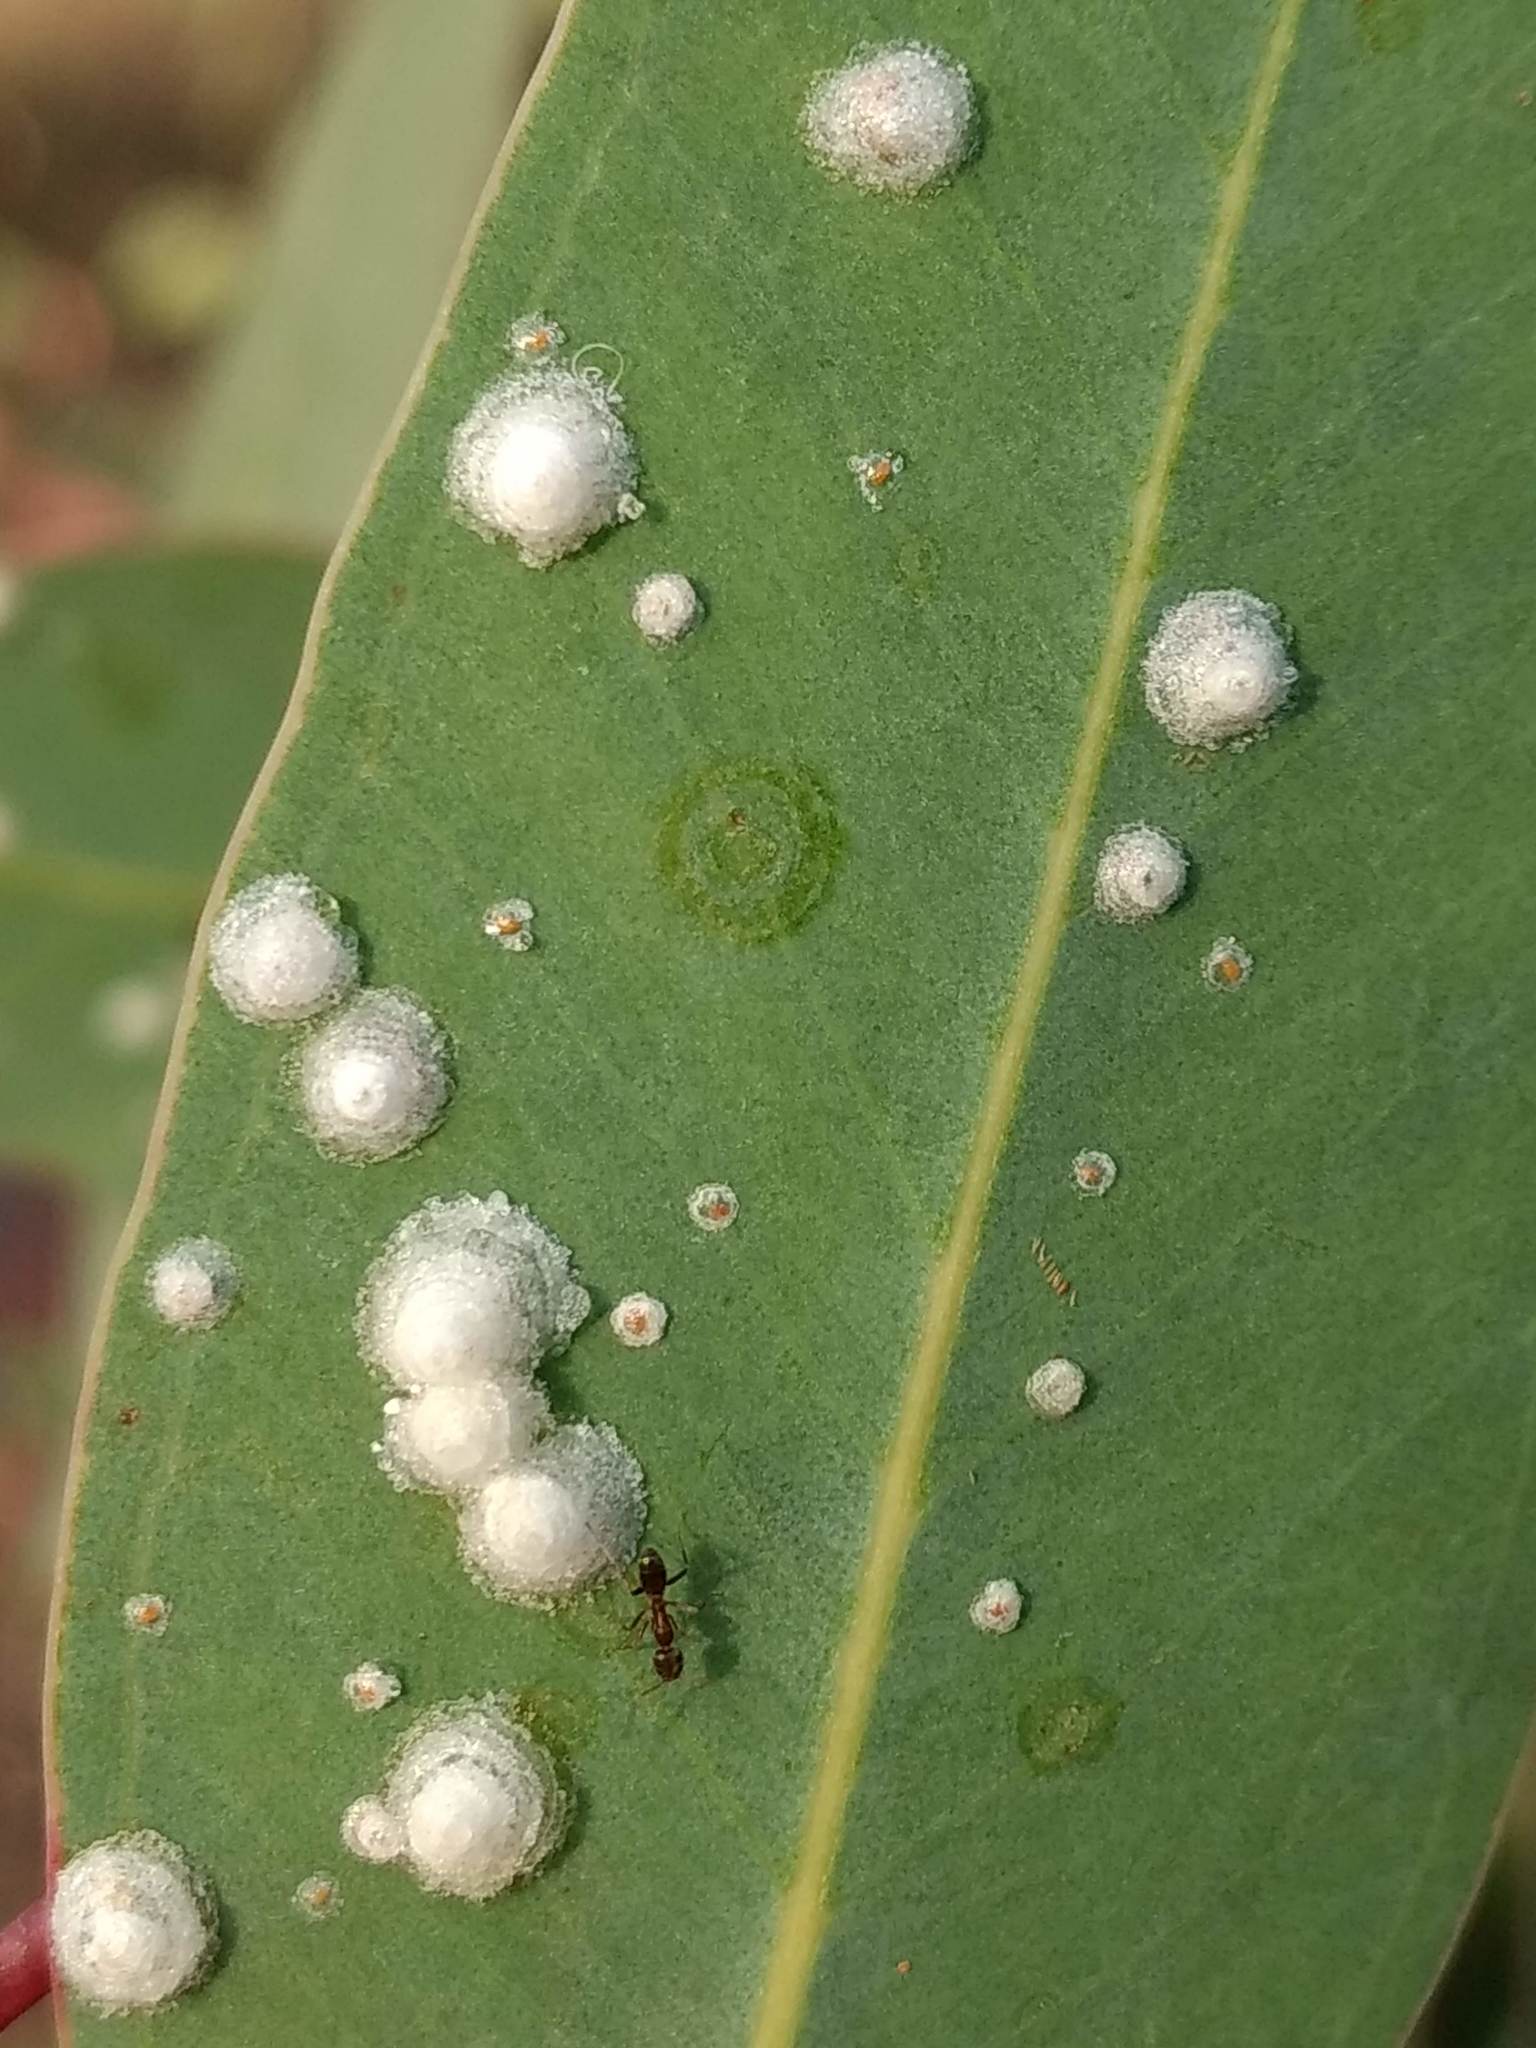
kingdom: Animalia
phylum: Arthropoda
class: Insecta
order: Hemiptera
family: Aphalaridae
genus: Glycaspis
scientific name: Glycaspis brimblecombei
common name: Red gum lerp psyllid
